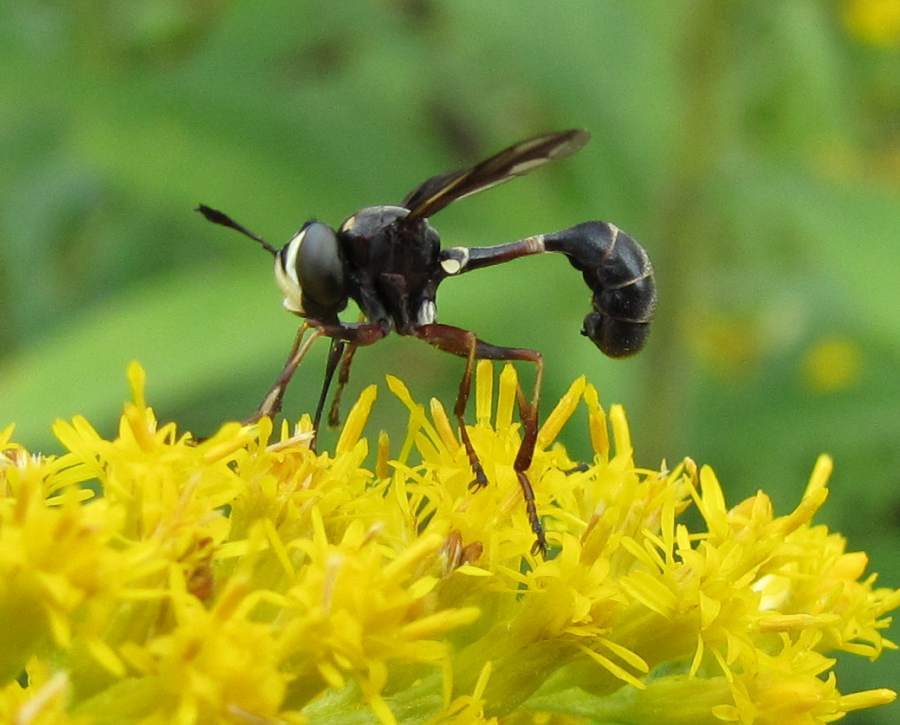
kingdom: Animalia
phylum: Arthropoda
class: Insecta
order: Diptera
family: Conopidae
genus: Physocephala
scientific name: Physocephala furcillata
